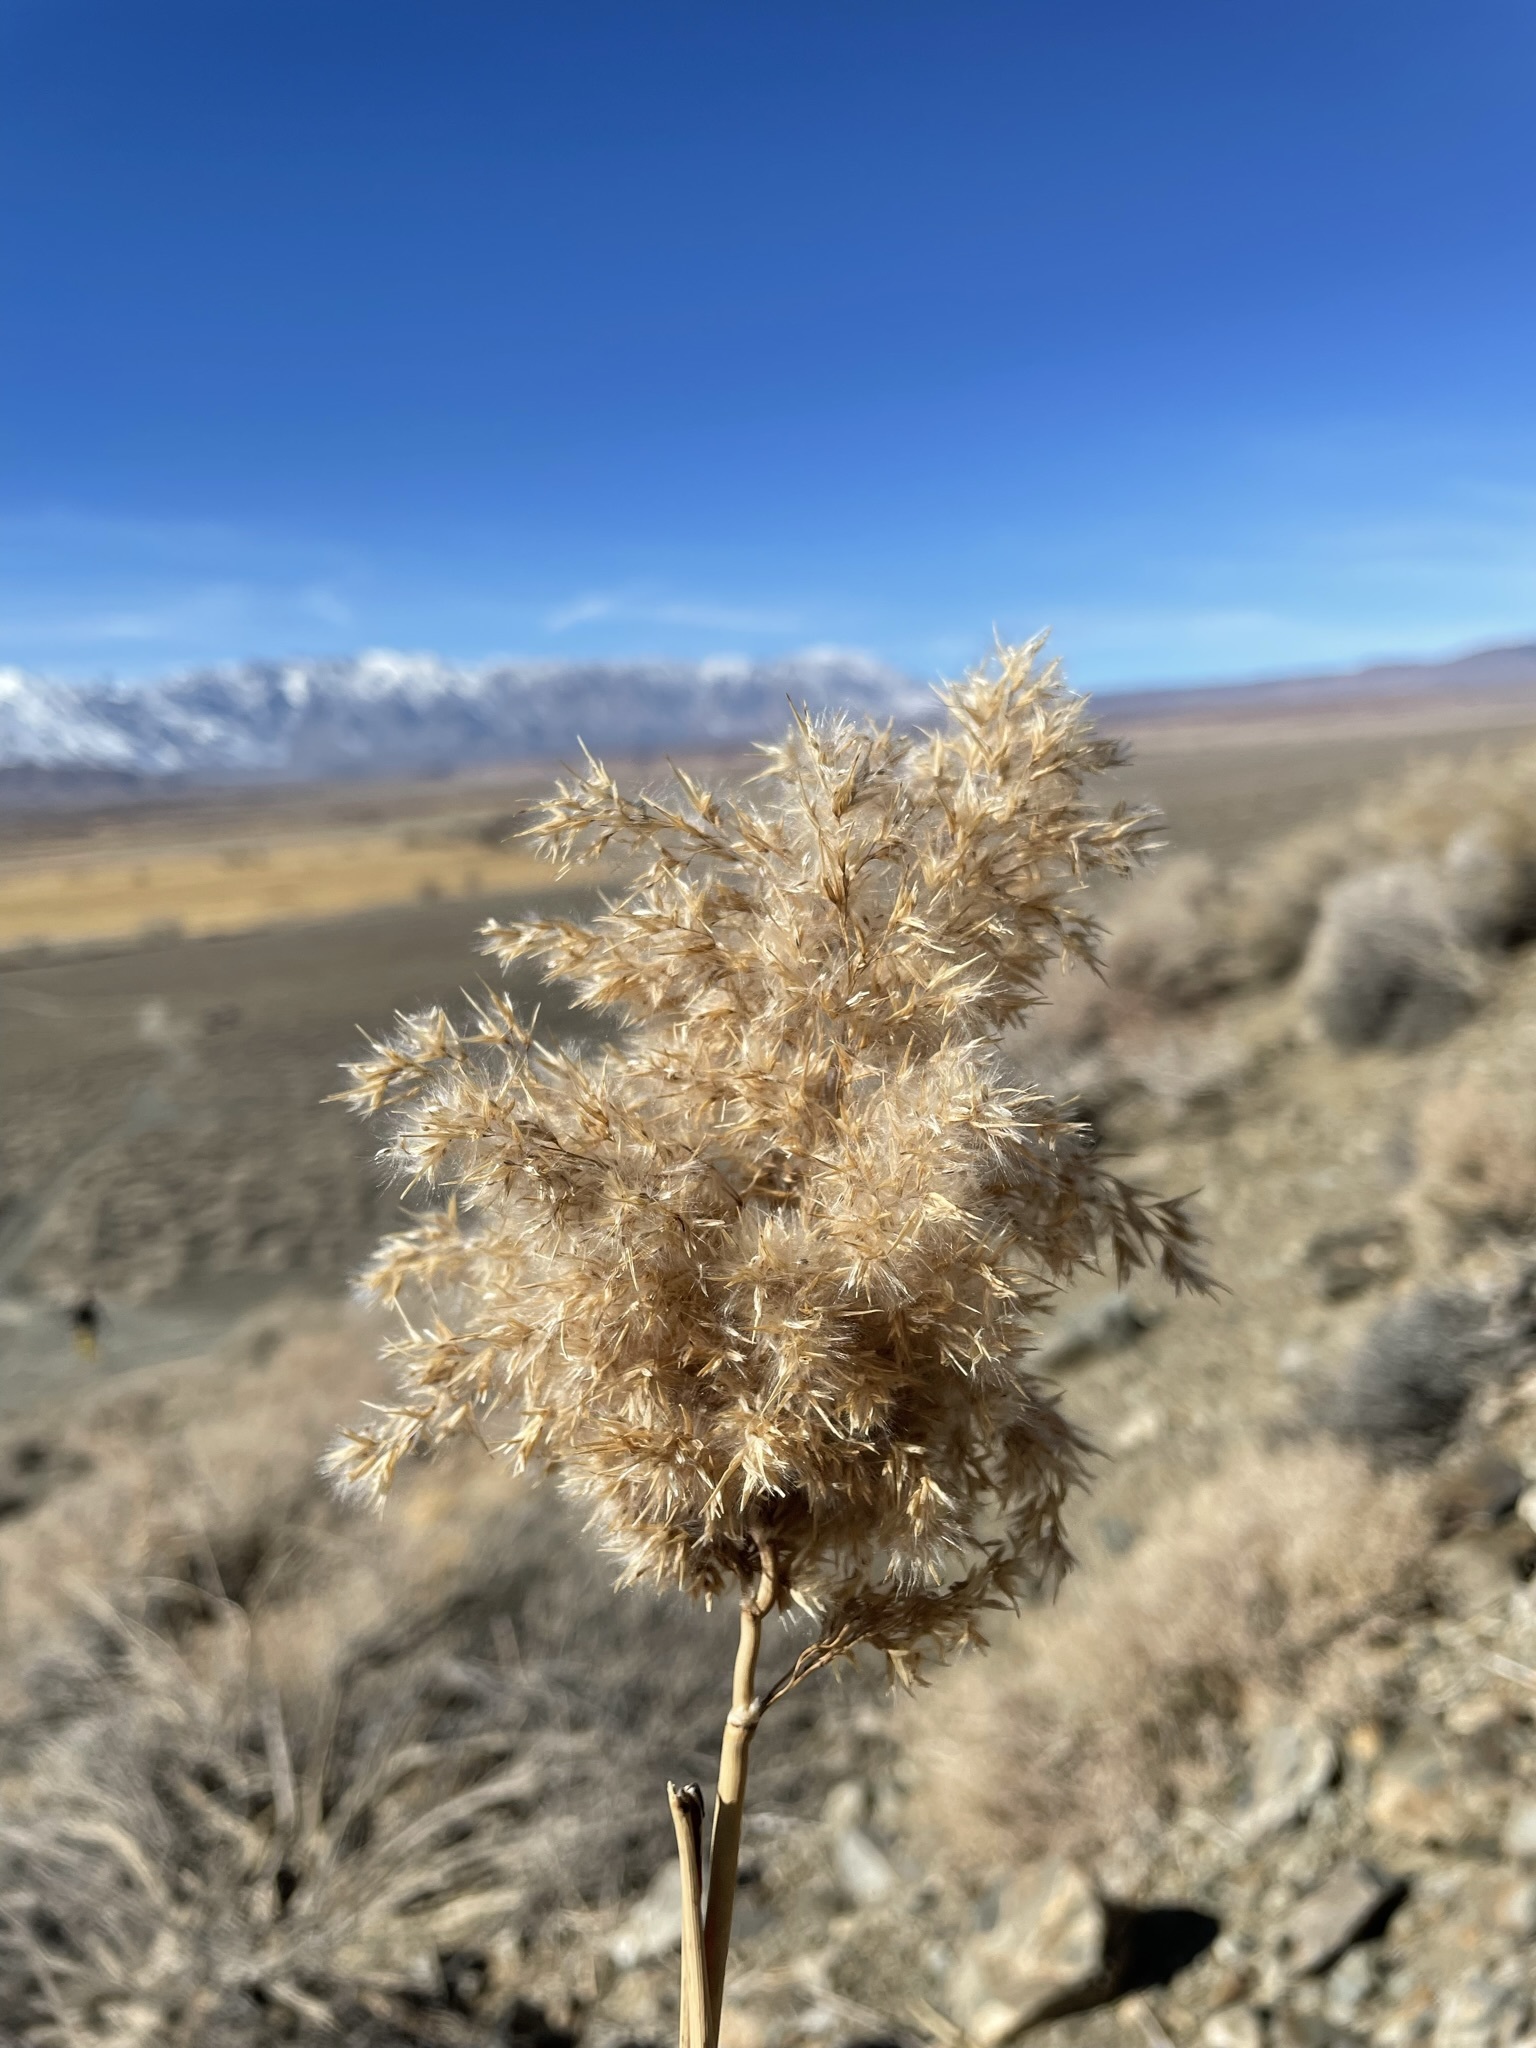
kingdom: Plantae
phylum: Tracheophyta
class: Liliopsida
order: Poales
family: Poaceae
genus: Phragmites
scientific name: Phragmites australis
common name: Common reed
